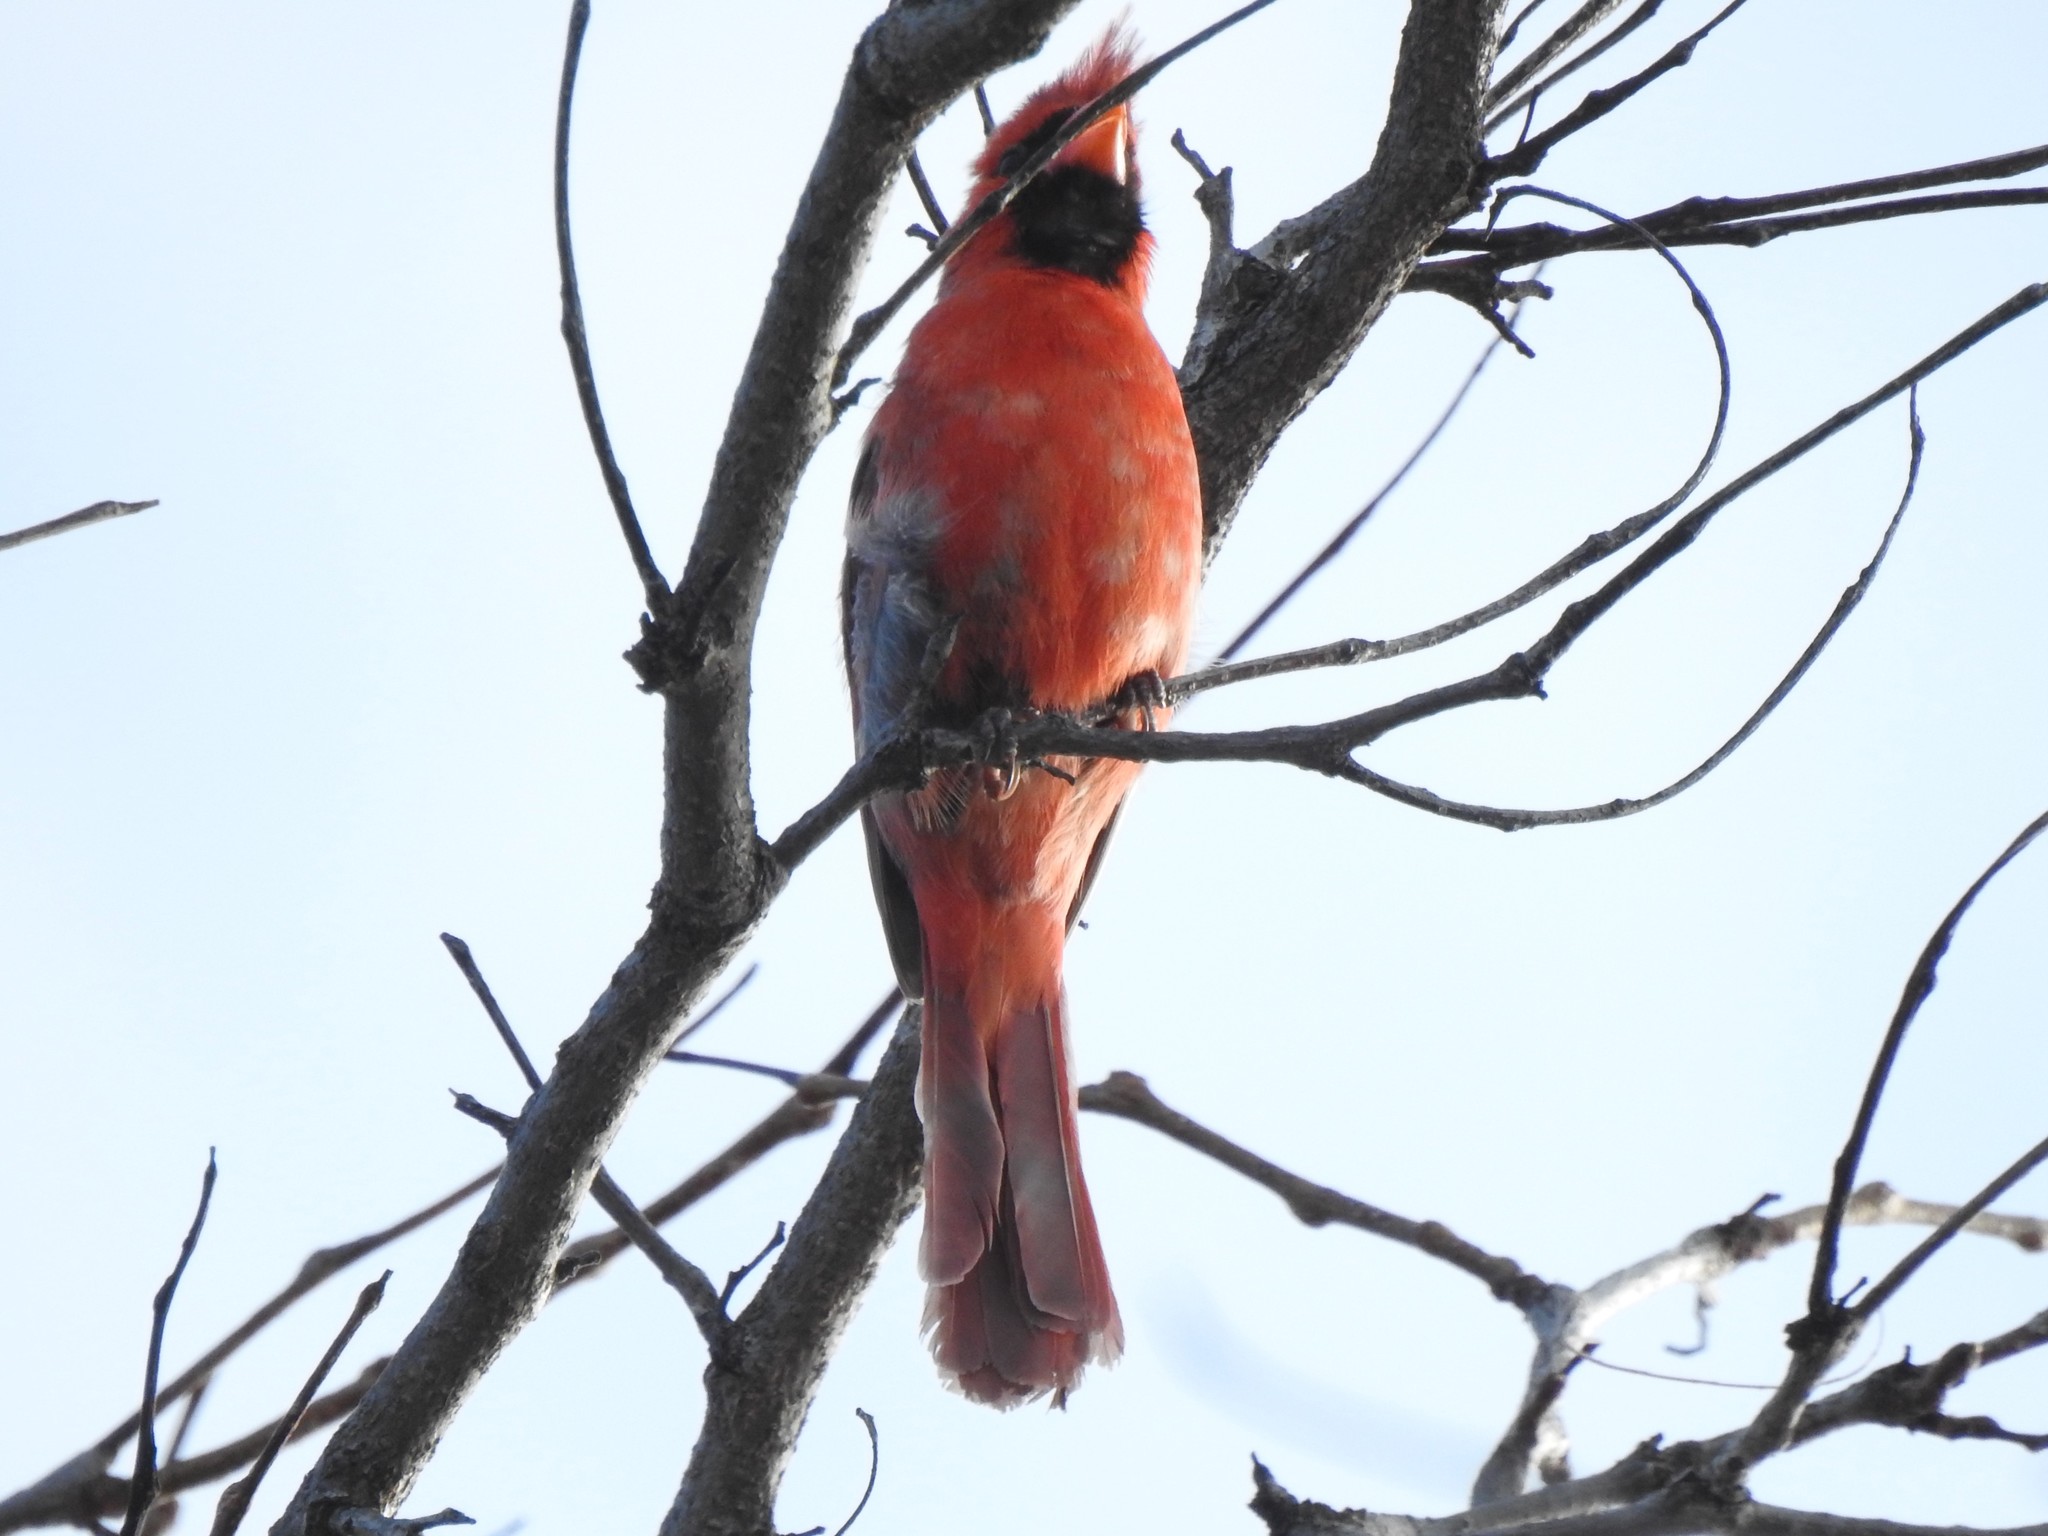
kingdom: Animalia
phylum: Chordata
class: Aves
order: Passeriformes
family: Cardinalidae
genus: Cardinalis
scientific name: Cardinalis cardinalis
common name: Northern cardinal
